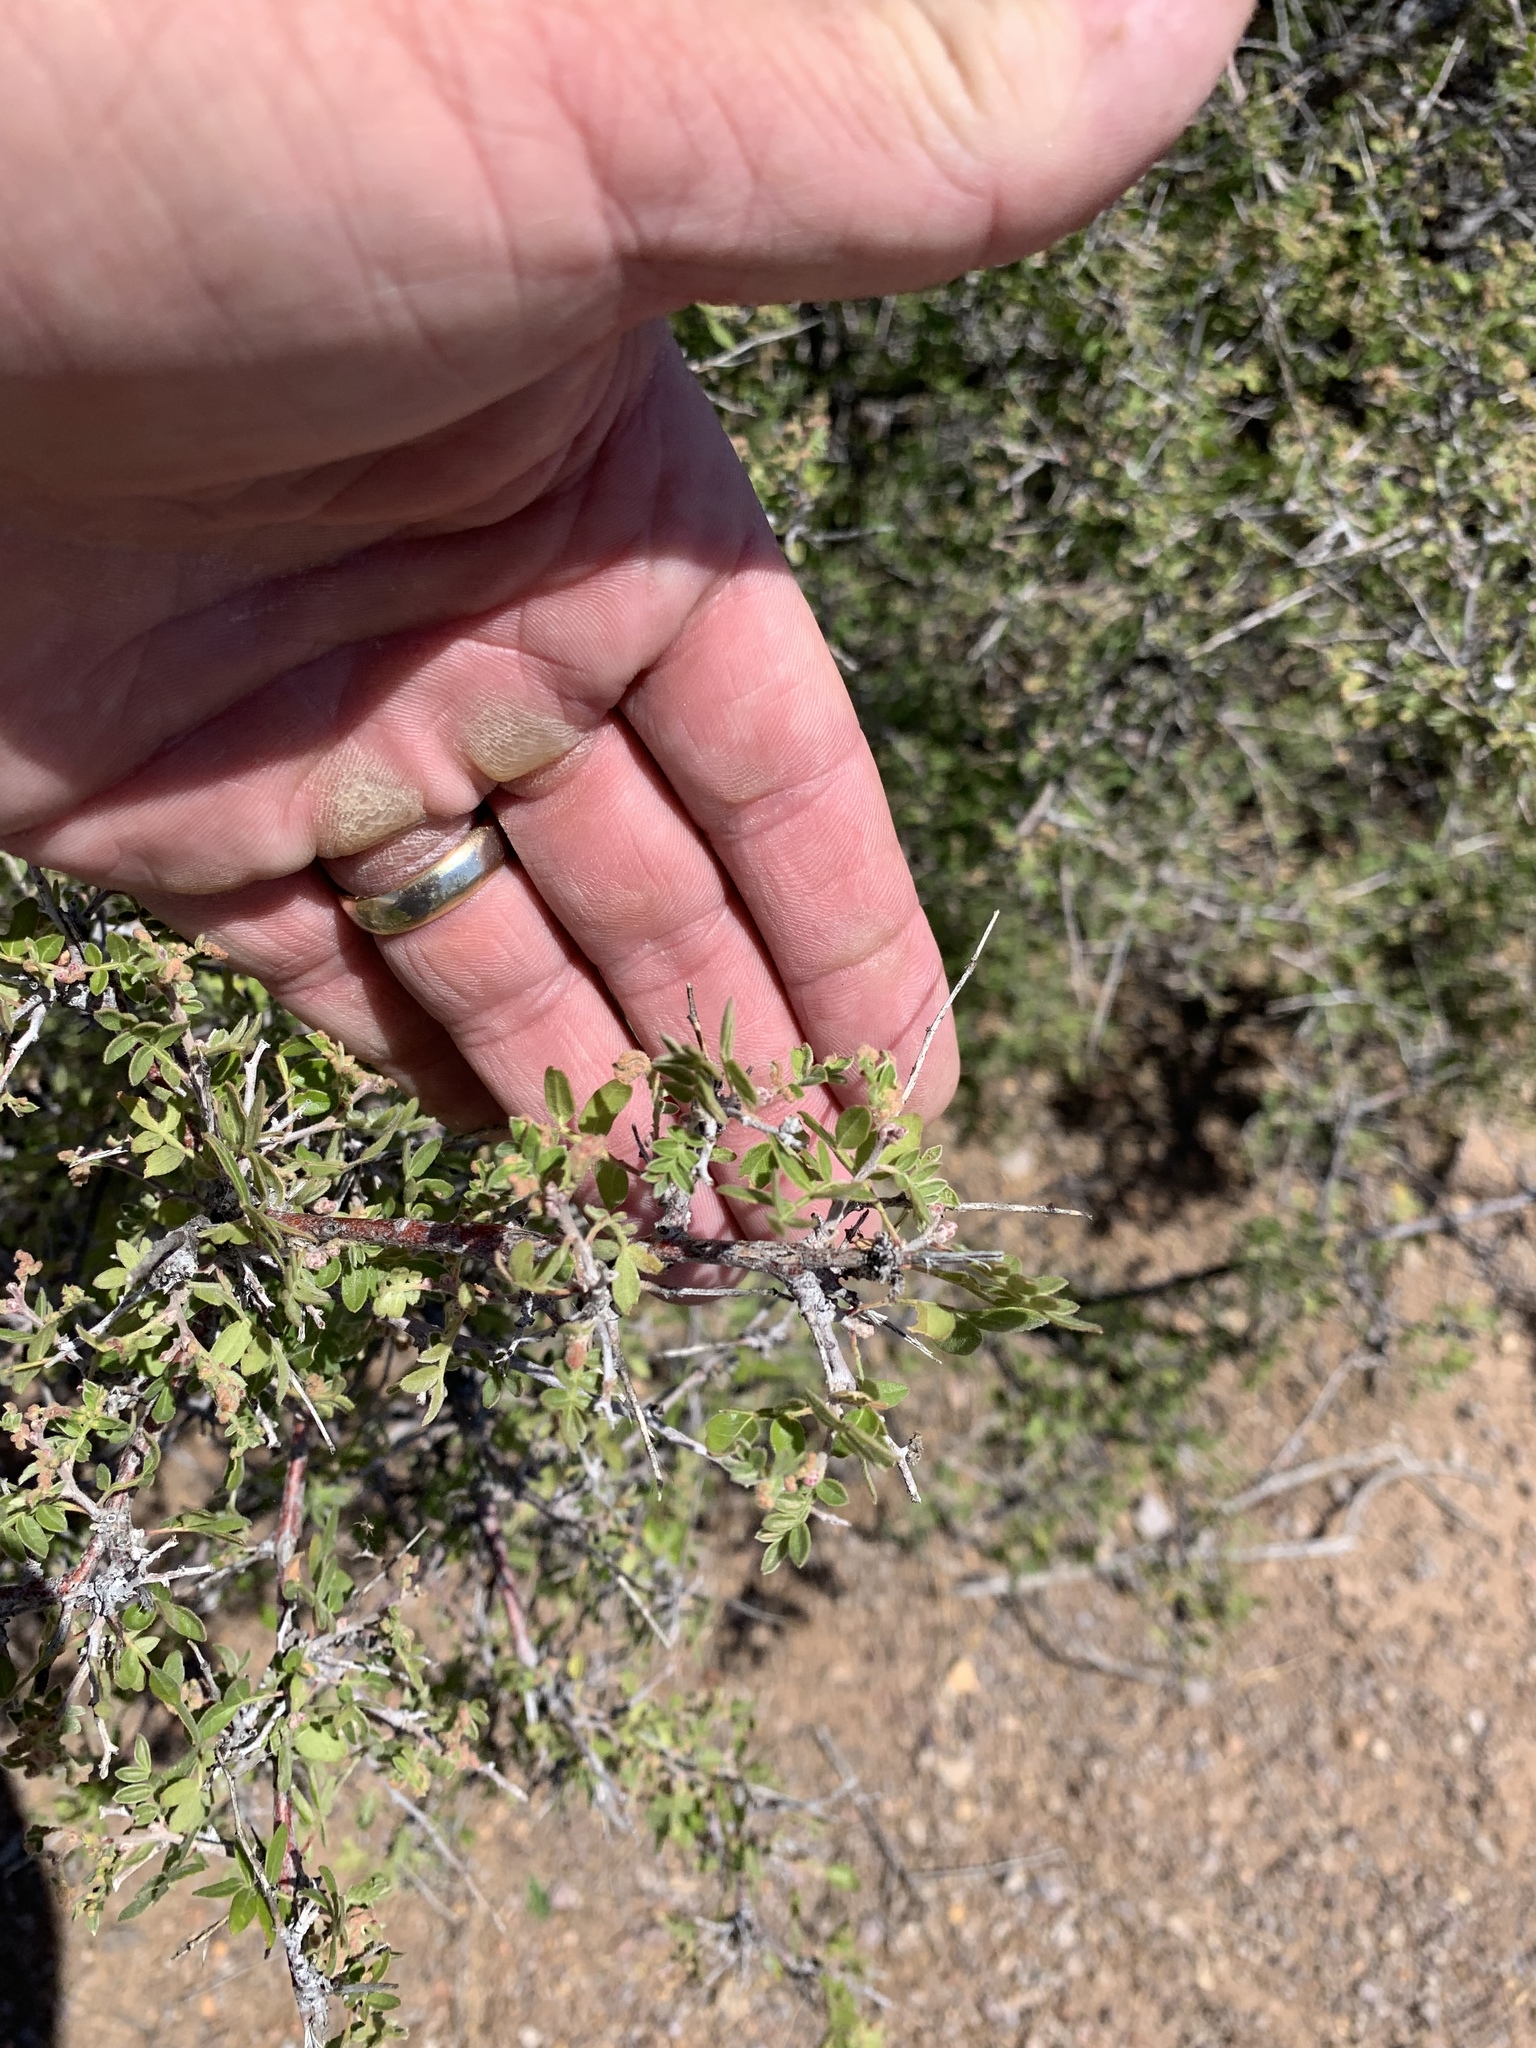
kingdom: Plantae
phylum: Tracheophyta
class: Magnoliopsida
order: Sapindales
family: Anacardiaceae
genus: Rhus
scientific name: Rhus microphylla
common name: Desert sumac
